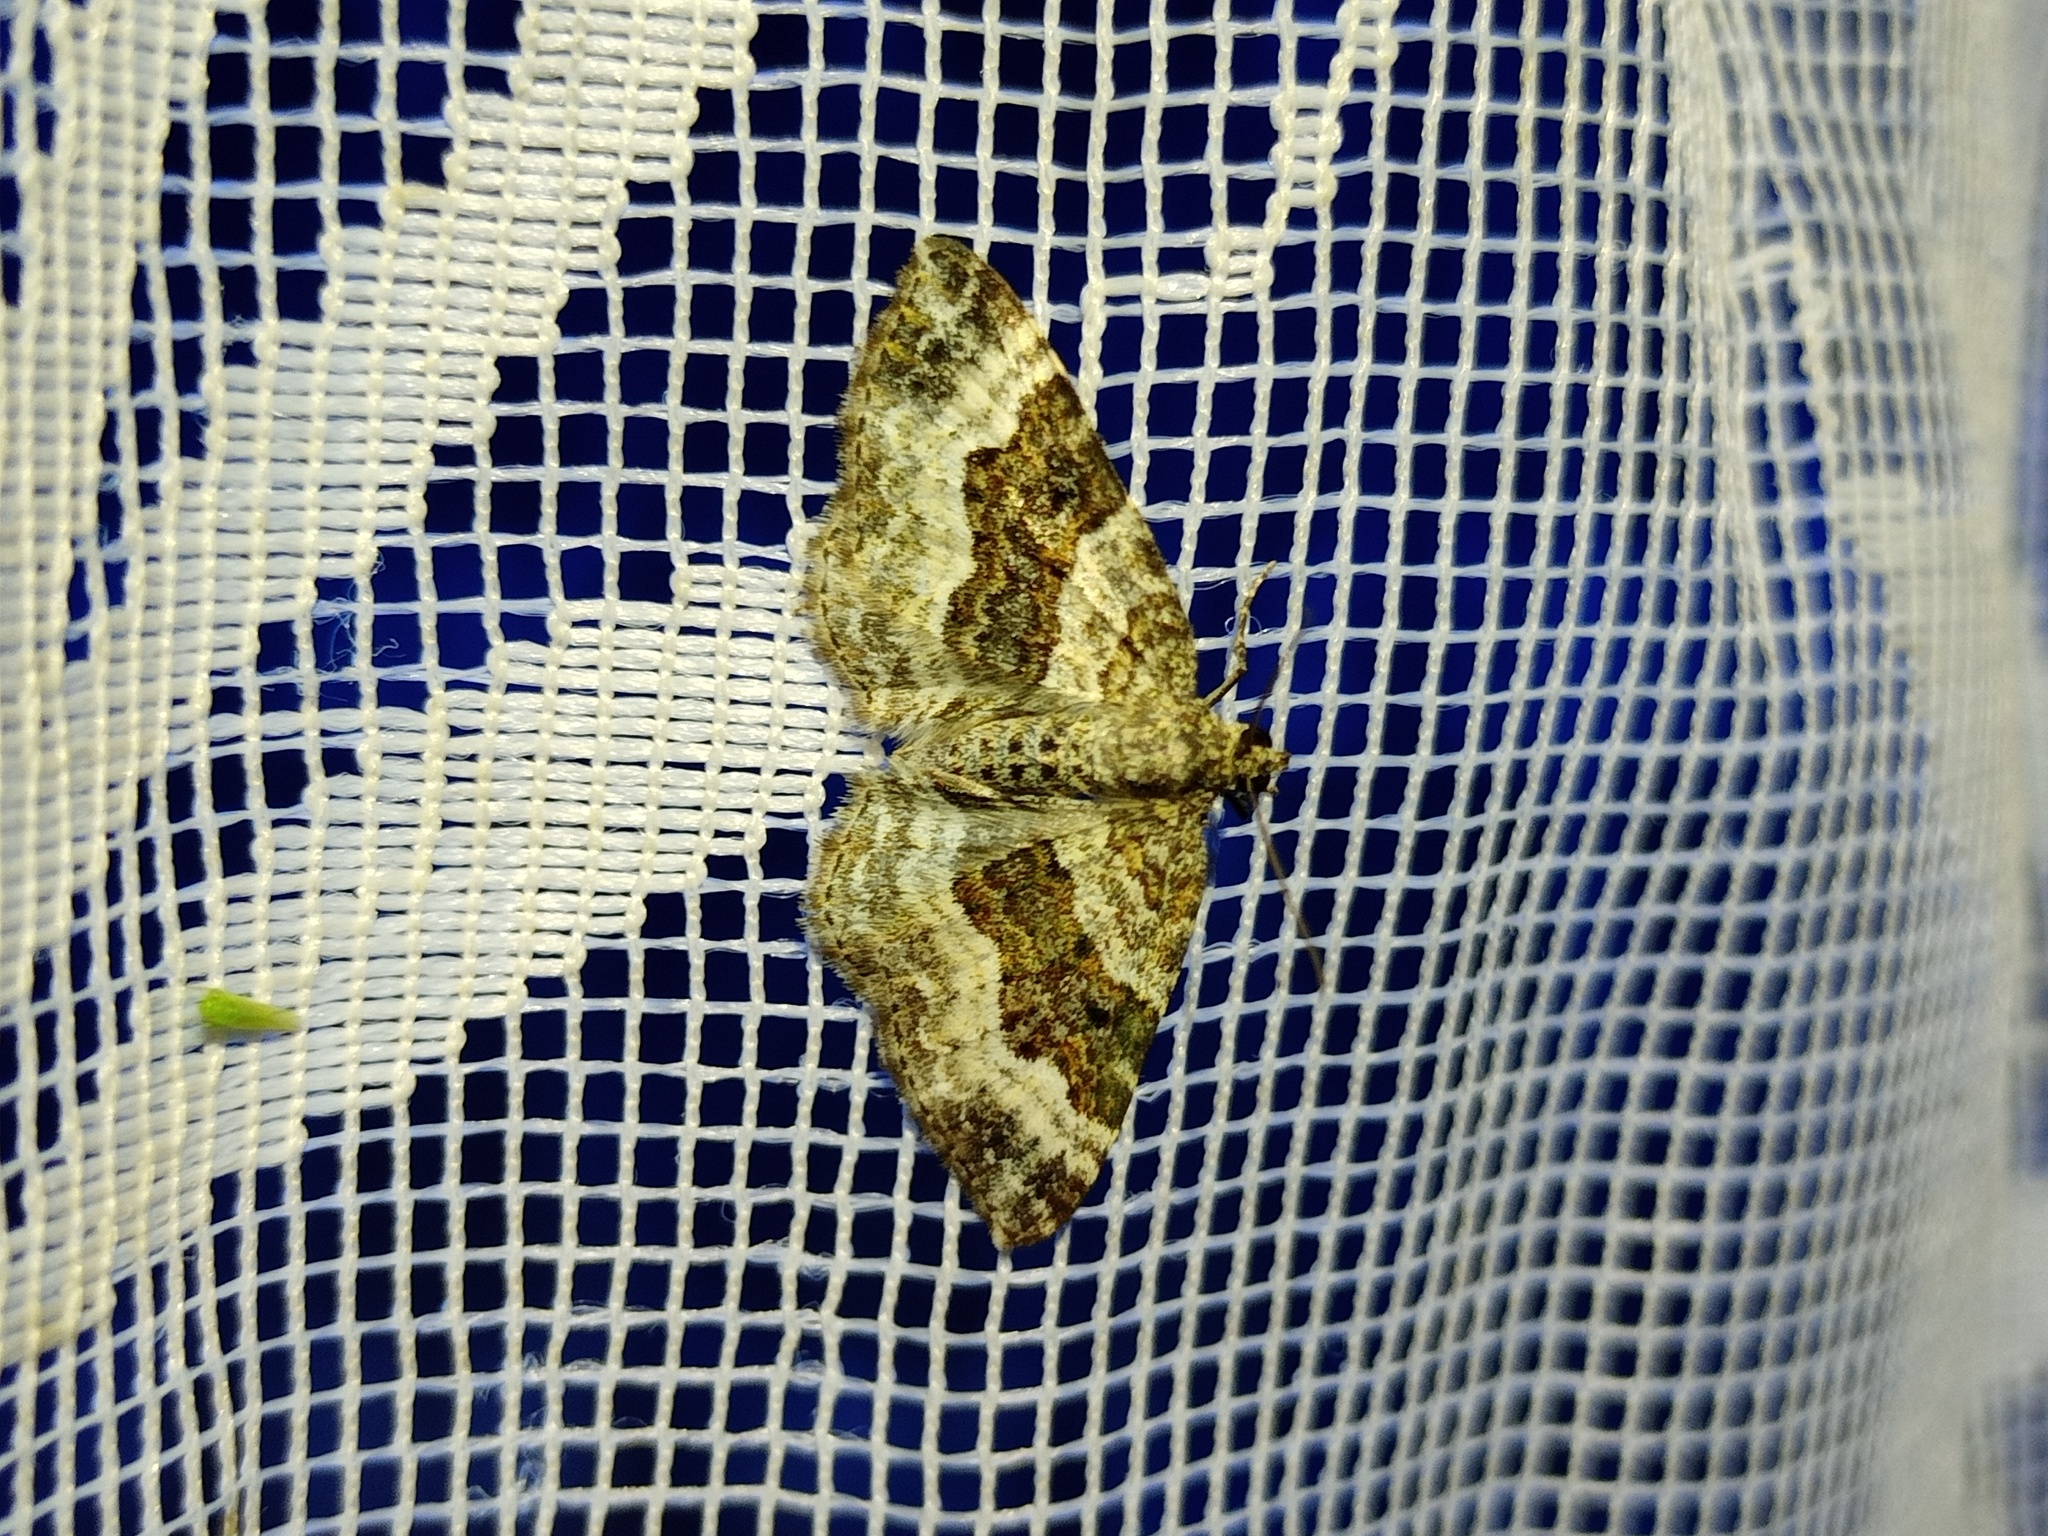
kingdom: Animalia
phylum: Arthropoda
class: Insecta
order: Lepidoptera
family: Geometridae
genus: Epirrhoe
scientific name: Epirrhoe alternata
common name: Common carpet
